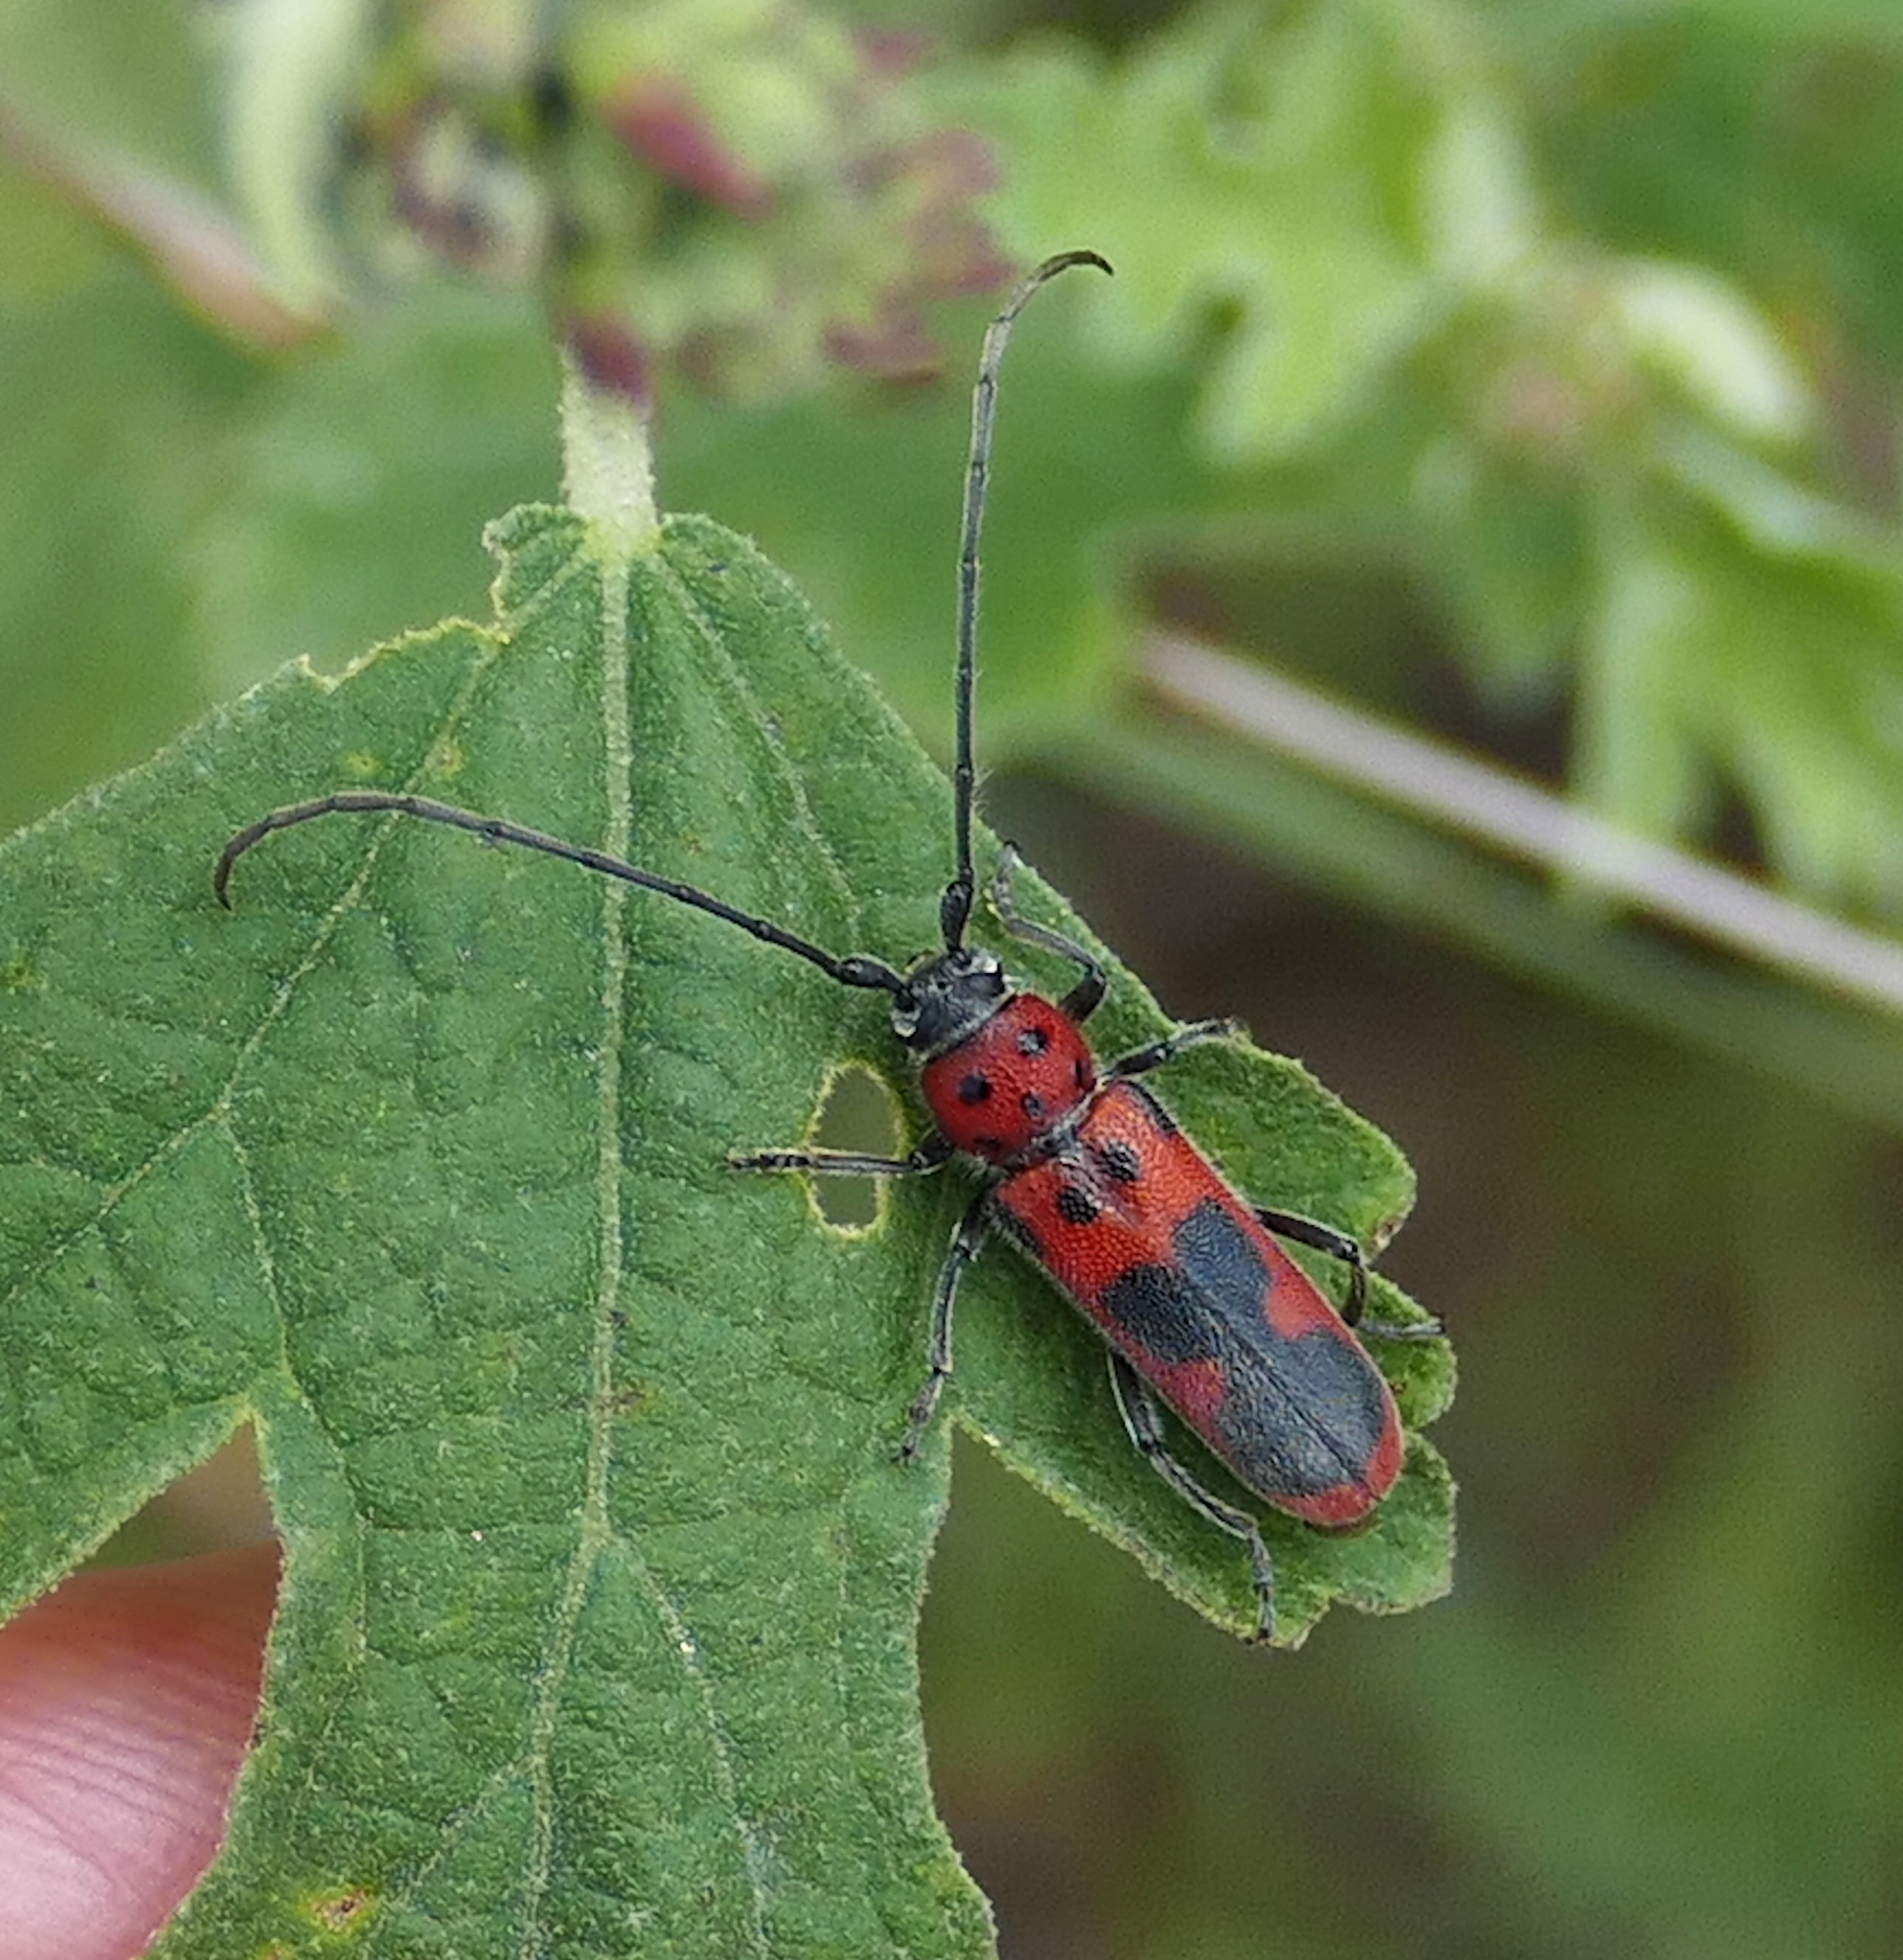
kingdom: Animalia
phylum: Arthropoda
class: Insecta
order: Coleoptera
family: Cerambycidae
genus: Tylosis
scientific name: Tylosis maculatus
